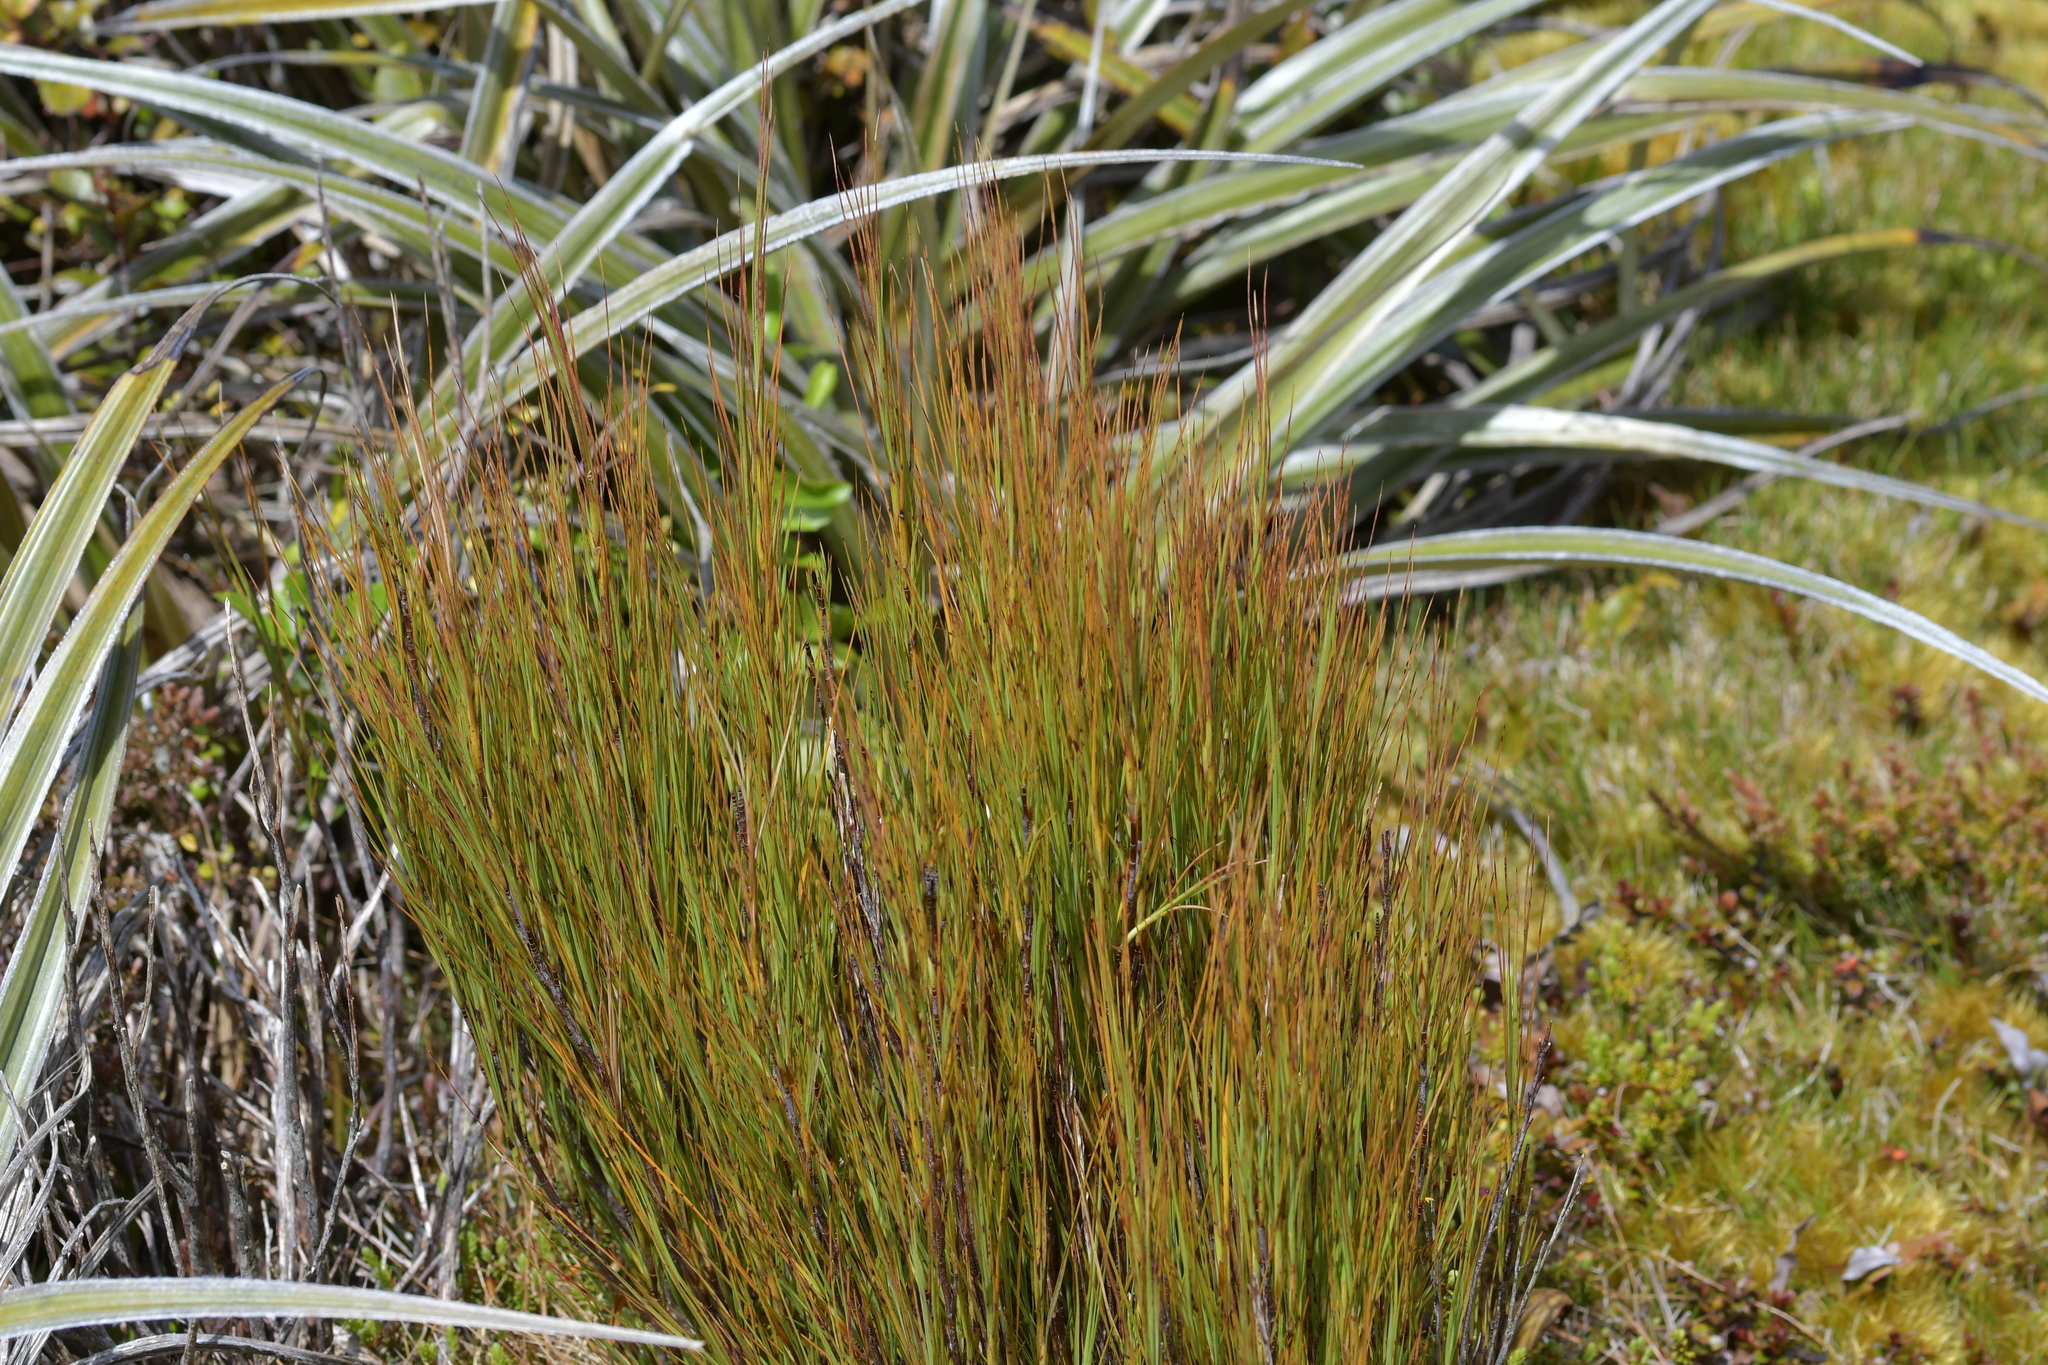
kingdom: Plantae
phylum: Tracheophyta
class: Magnoliopsida
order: Ericales
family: Ericaceae
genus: Dracophyllum
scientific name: Dracophyllum filifolium
